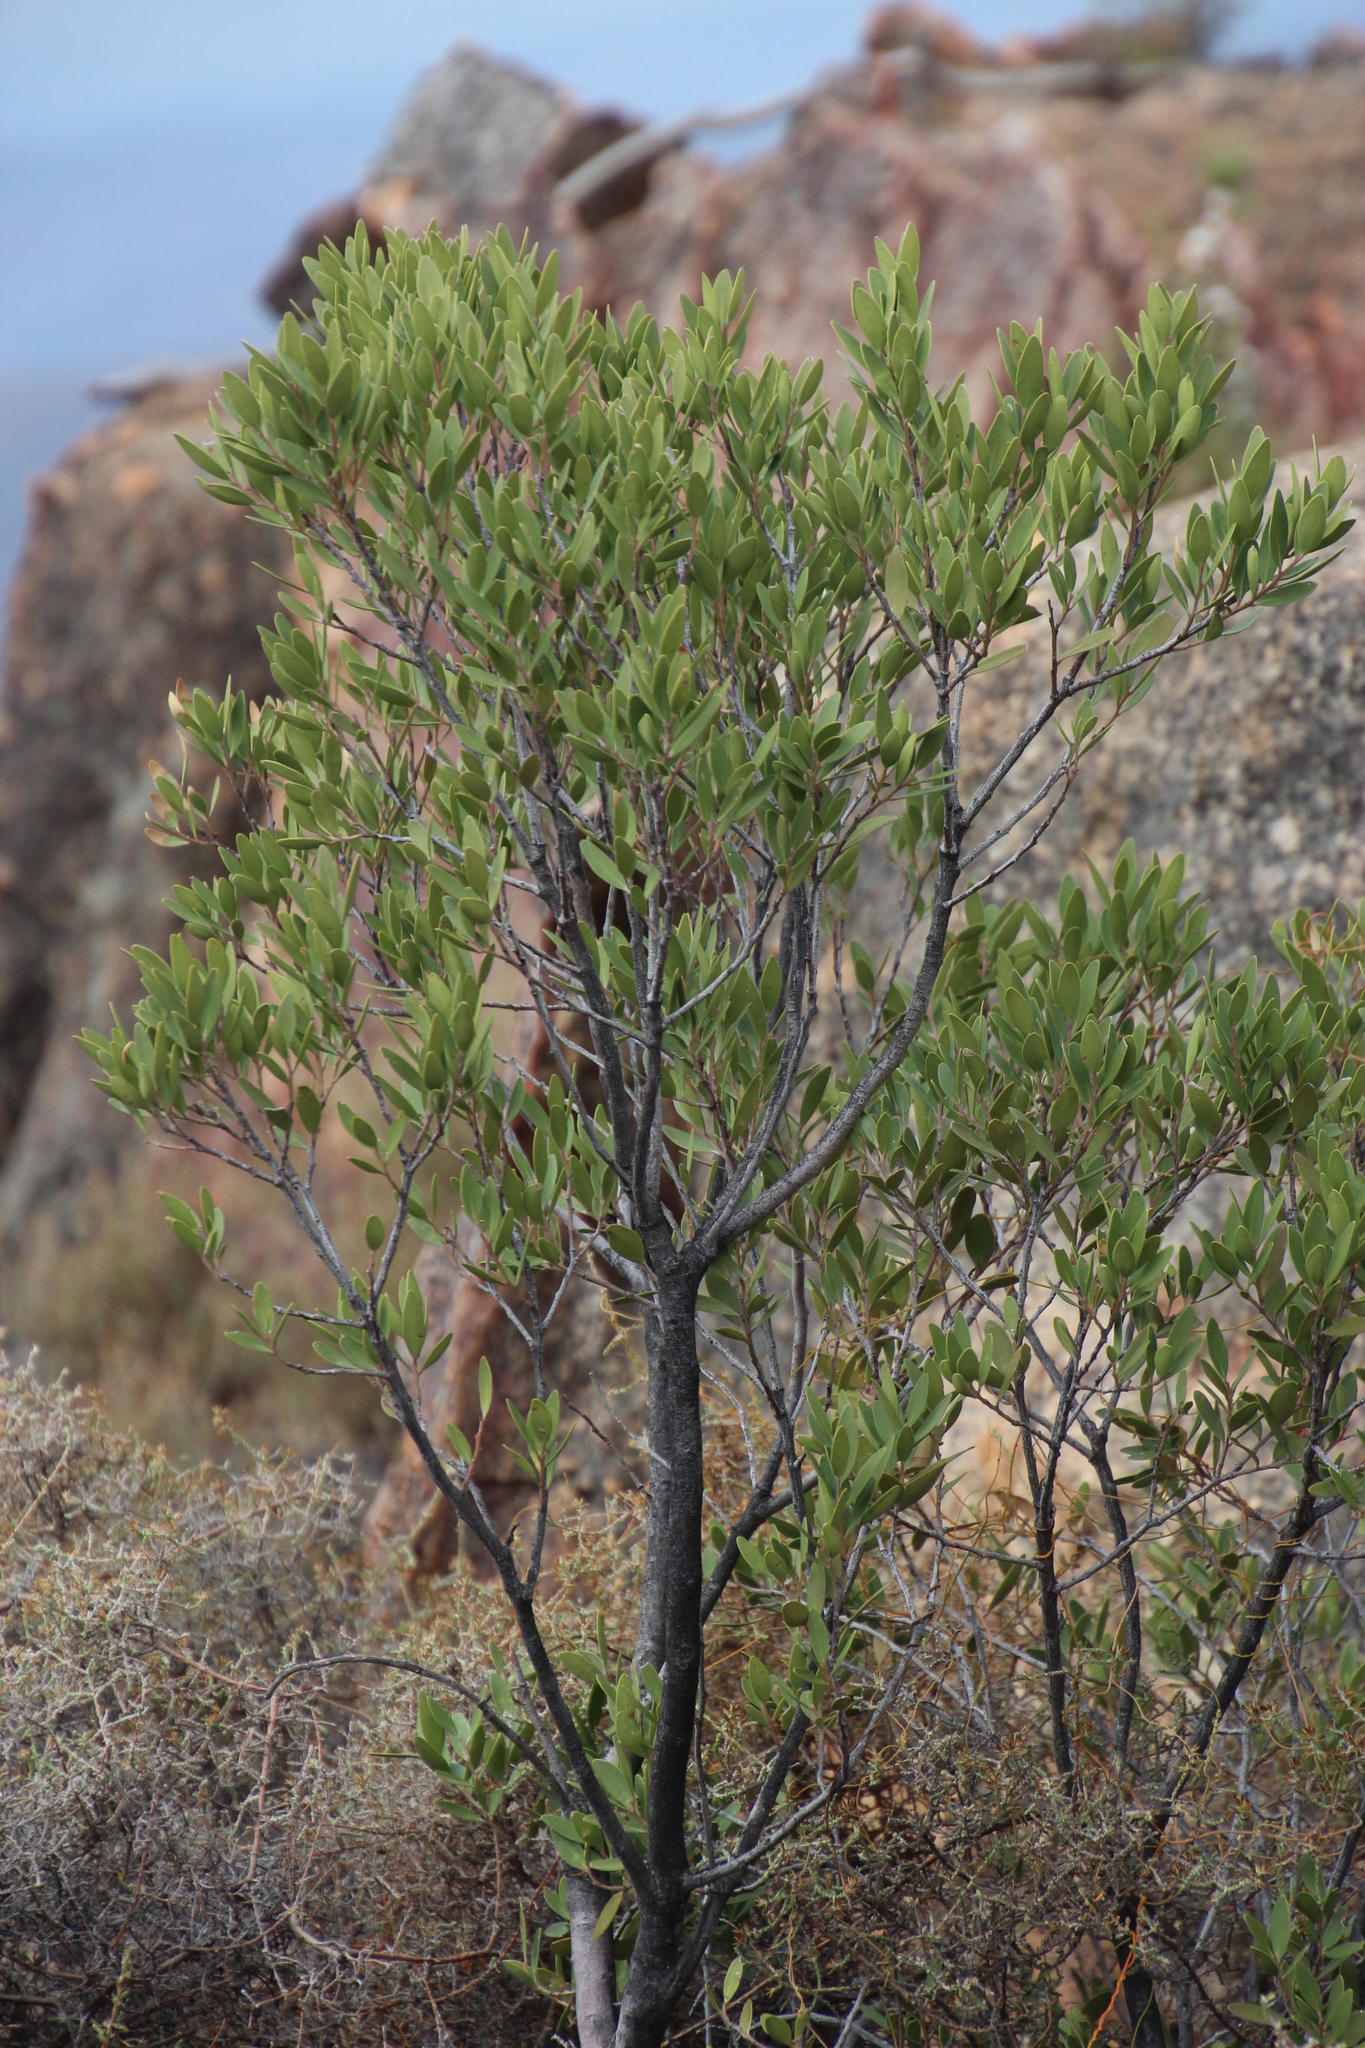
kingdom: Plantae
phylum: Tracheophyta
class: Magnoliopsida
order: Celastrales
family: Celastraceae
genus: Gymnosporia
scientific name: Gymnosporia laurina
